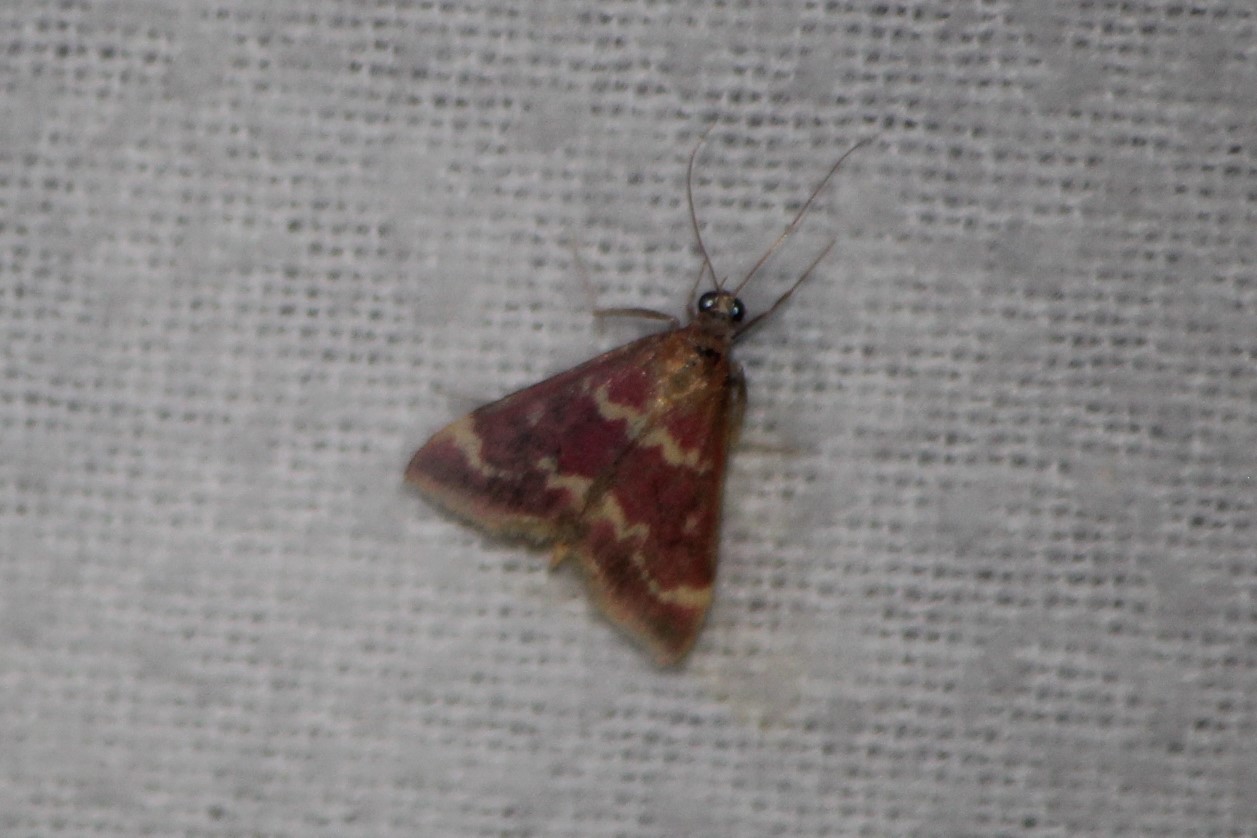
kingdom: Animalia
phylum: Arthropoda
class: Insecta
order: Lepidoptera
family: Crambidae
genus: Pyrausta
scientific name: Pyrausta signatalis
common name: Raspberry pyrausta moth
